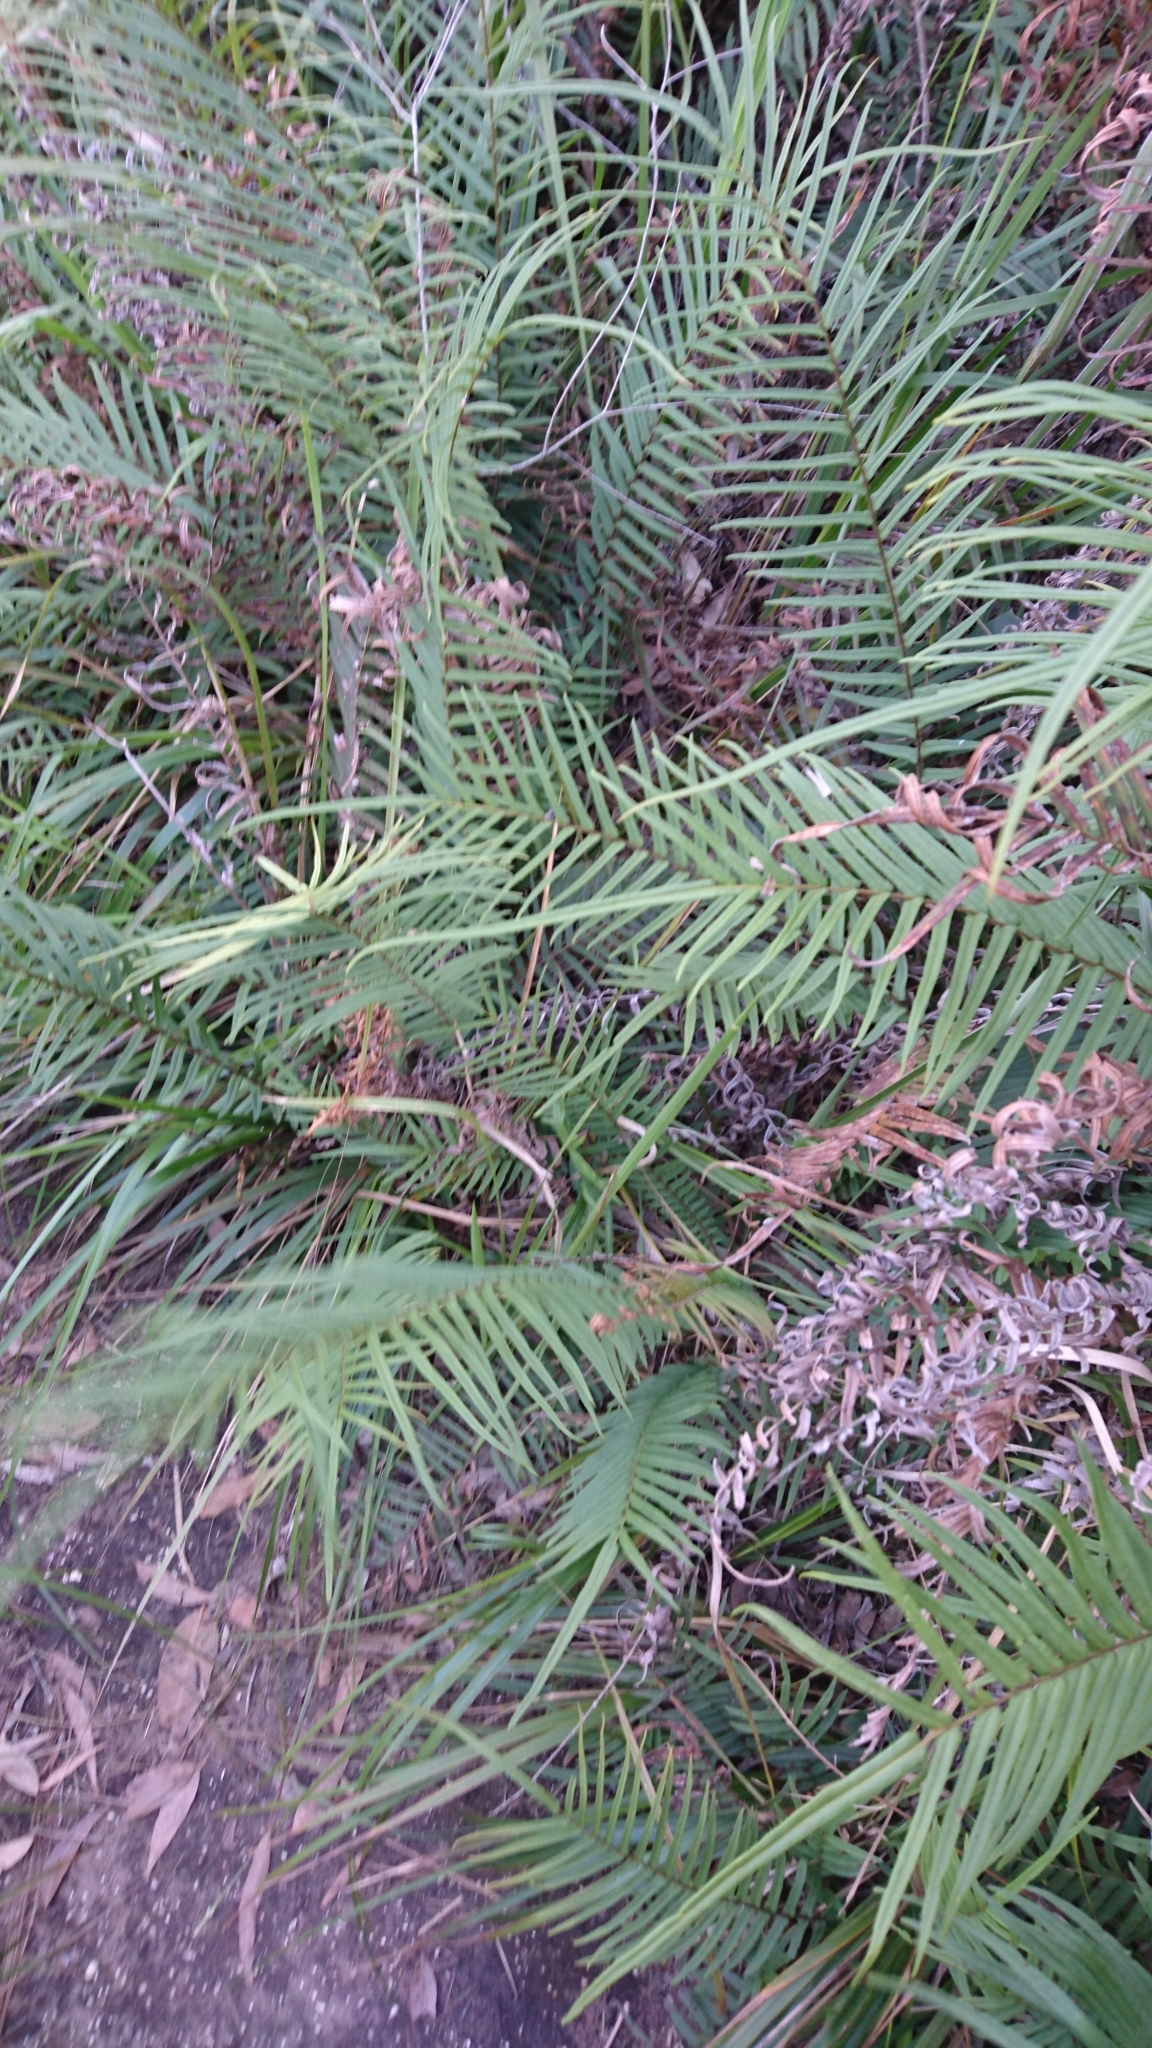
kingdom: Plantae
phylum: Tracheophyta
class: Polypodiopsida
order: Polypodiales
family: Pteridaceae
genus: Pteris
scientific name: Pteris vittata
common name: Ladder brake
